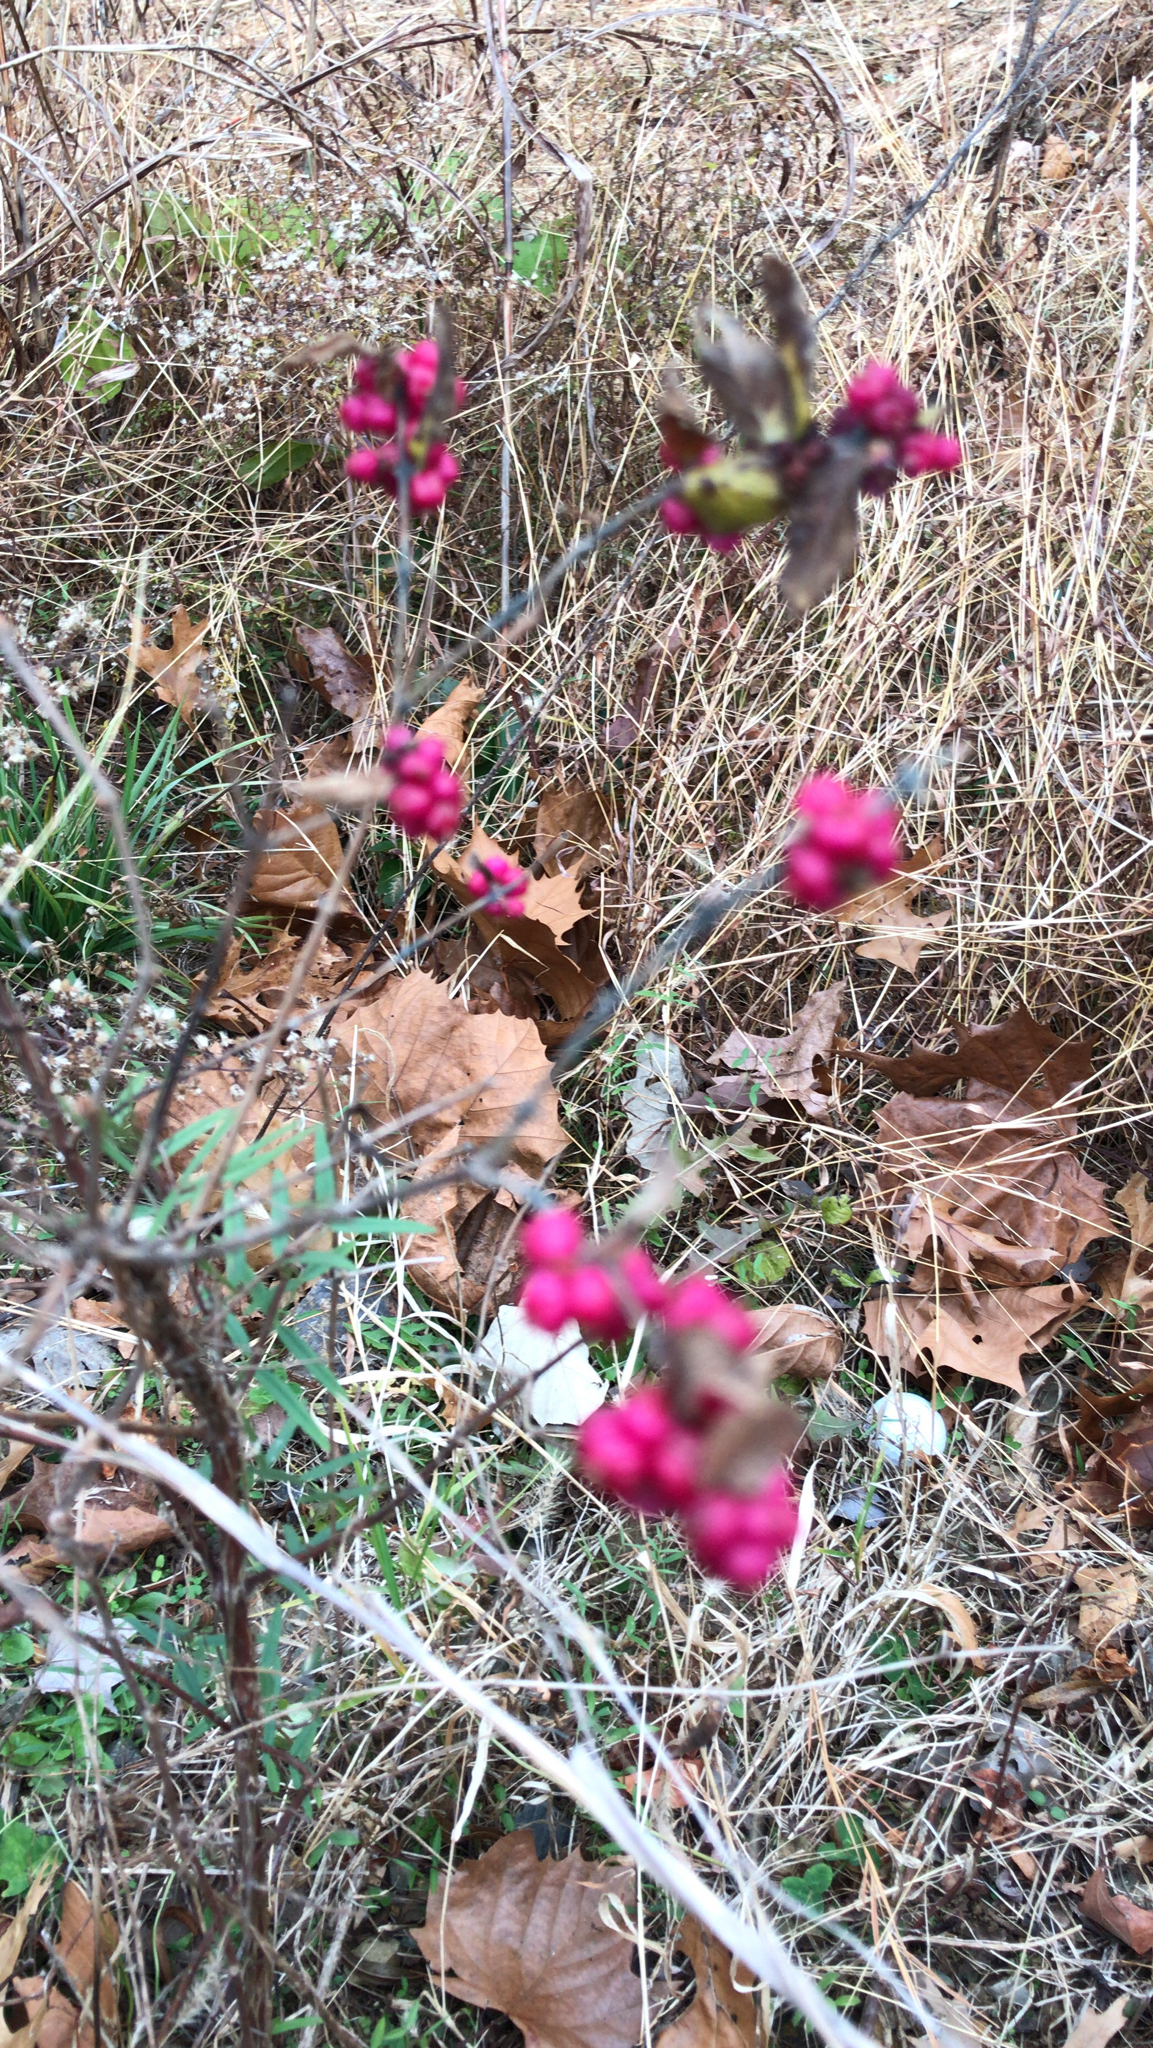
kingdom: Plantae
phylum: Tracheophyta
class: Magnoliopsida
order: Dipsacales
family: Caprifoliaceae
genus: Symphoricarpos
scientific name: Symphoricarpos orbiculatus
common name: Coralberry
